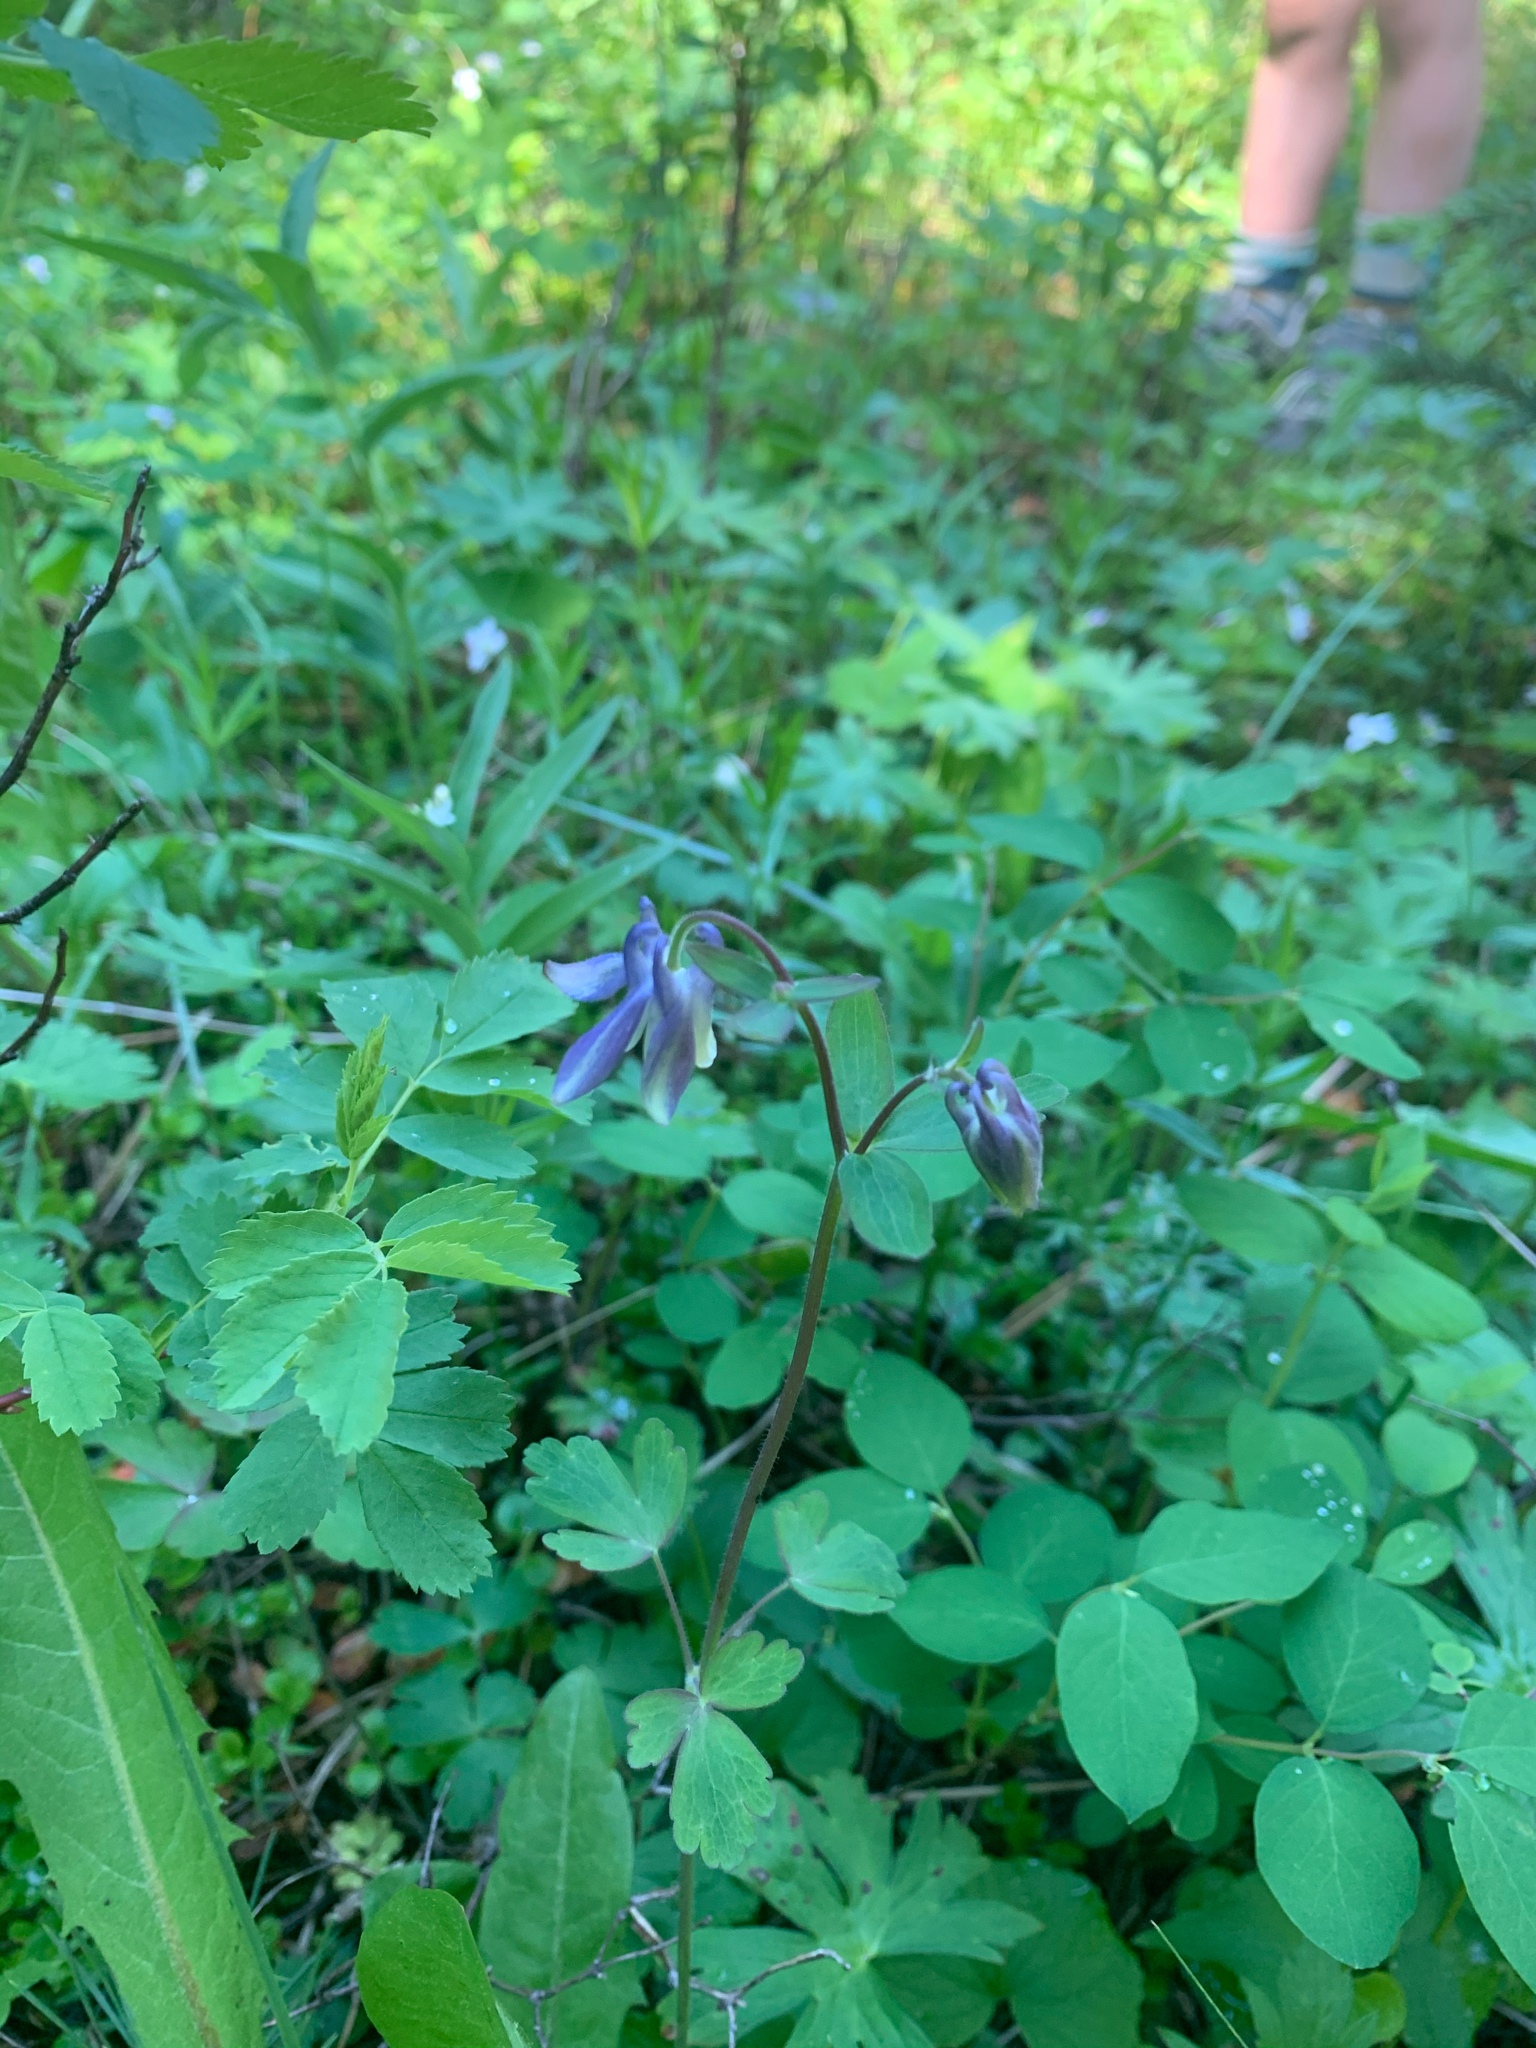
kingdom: Plantae
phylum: Tracheophyta
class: Magnoliopsida
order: Ranunculales
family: Ranunculaceae
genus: Aquilegia
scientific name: Aquilegia brevistyla
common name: Yukon columbine
